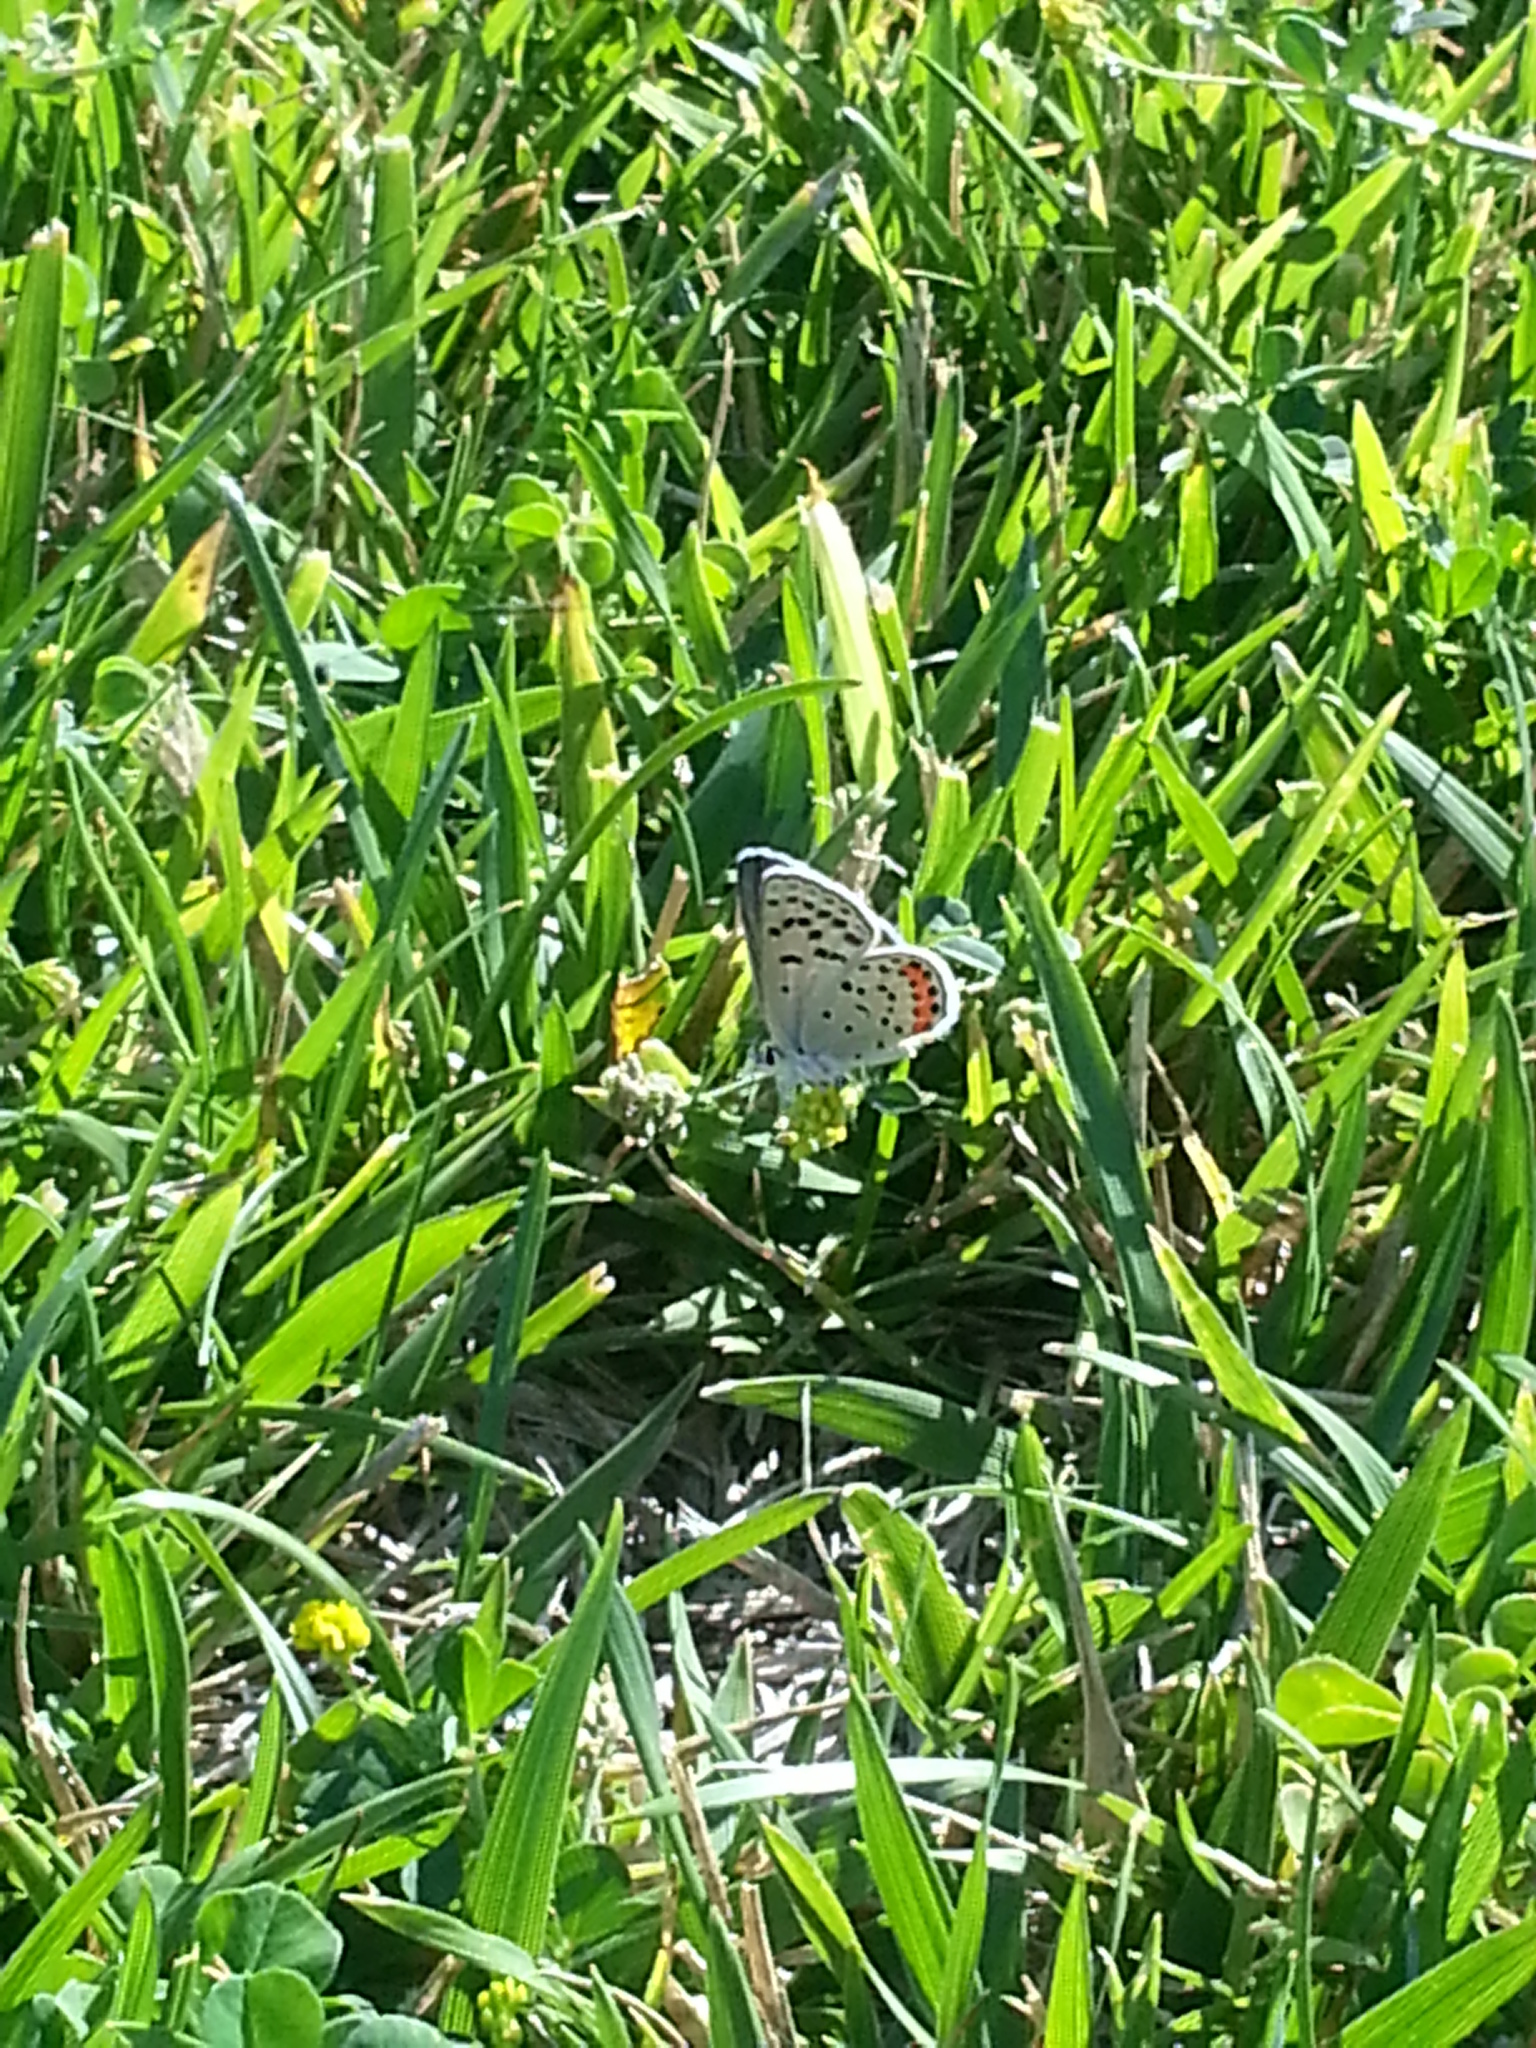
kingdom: Animalia
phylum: Arthropoda
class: Insecta
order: Lepidoptera
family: Lycaenidae
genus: Icaricia
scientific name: Icaricia acmon
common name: Acmon blue
